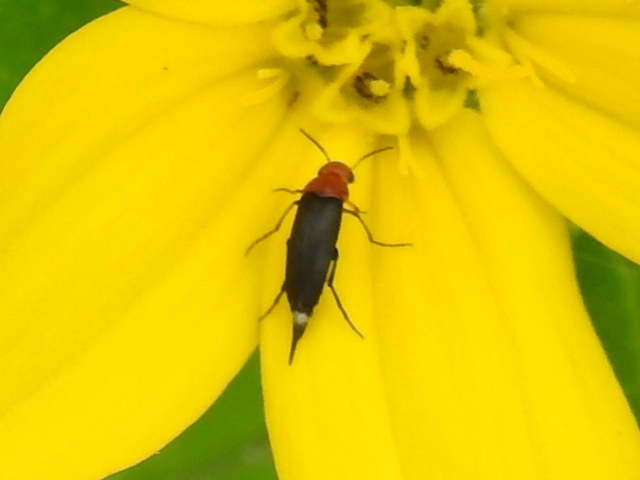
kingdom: Animalia
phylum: Arthropoda
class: Insecta
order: Coleoptera
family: Mordellidae
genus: Mordellistena
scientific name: Mordellistena cervicalis
